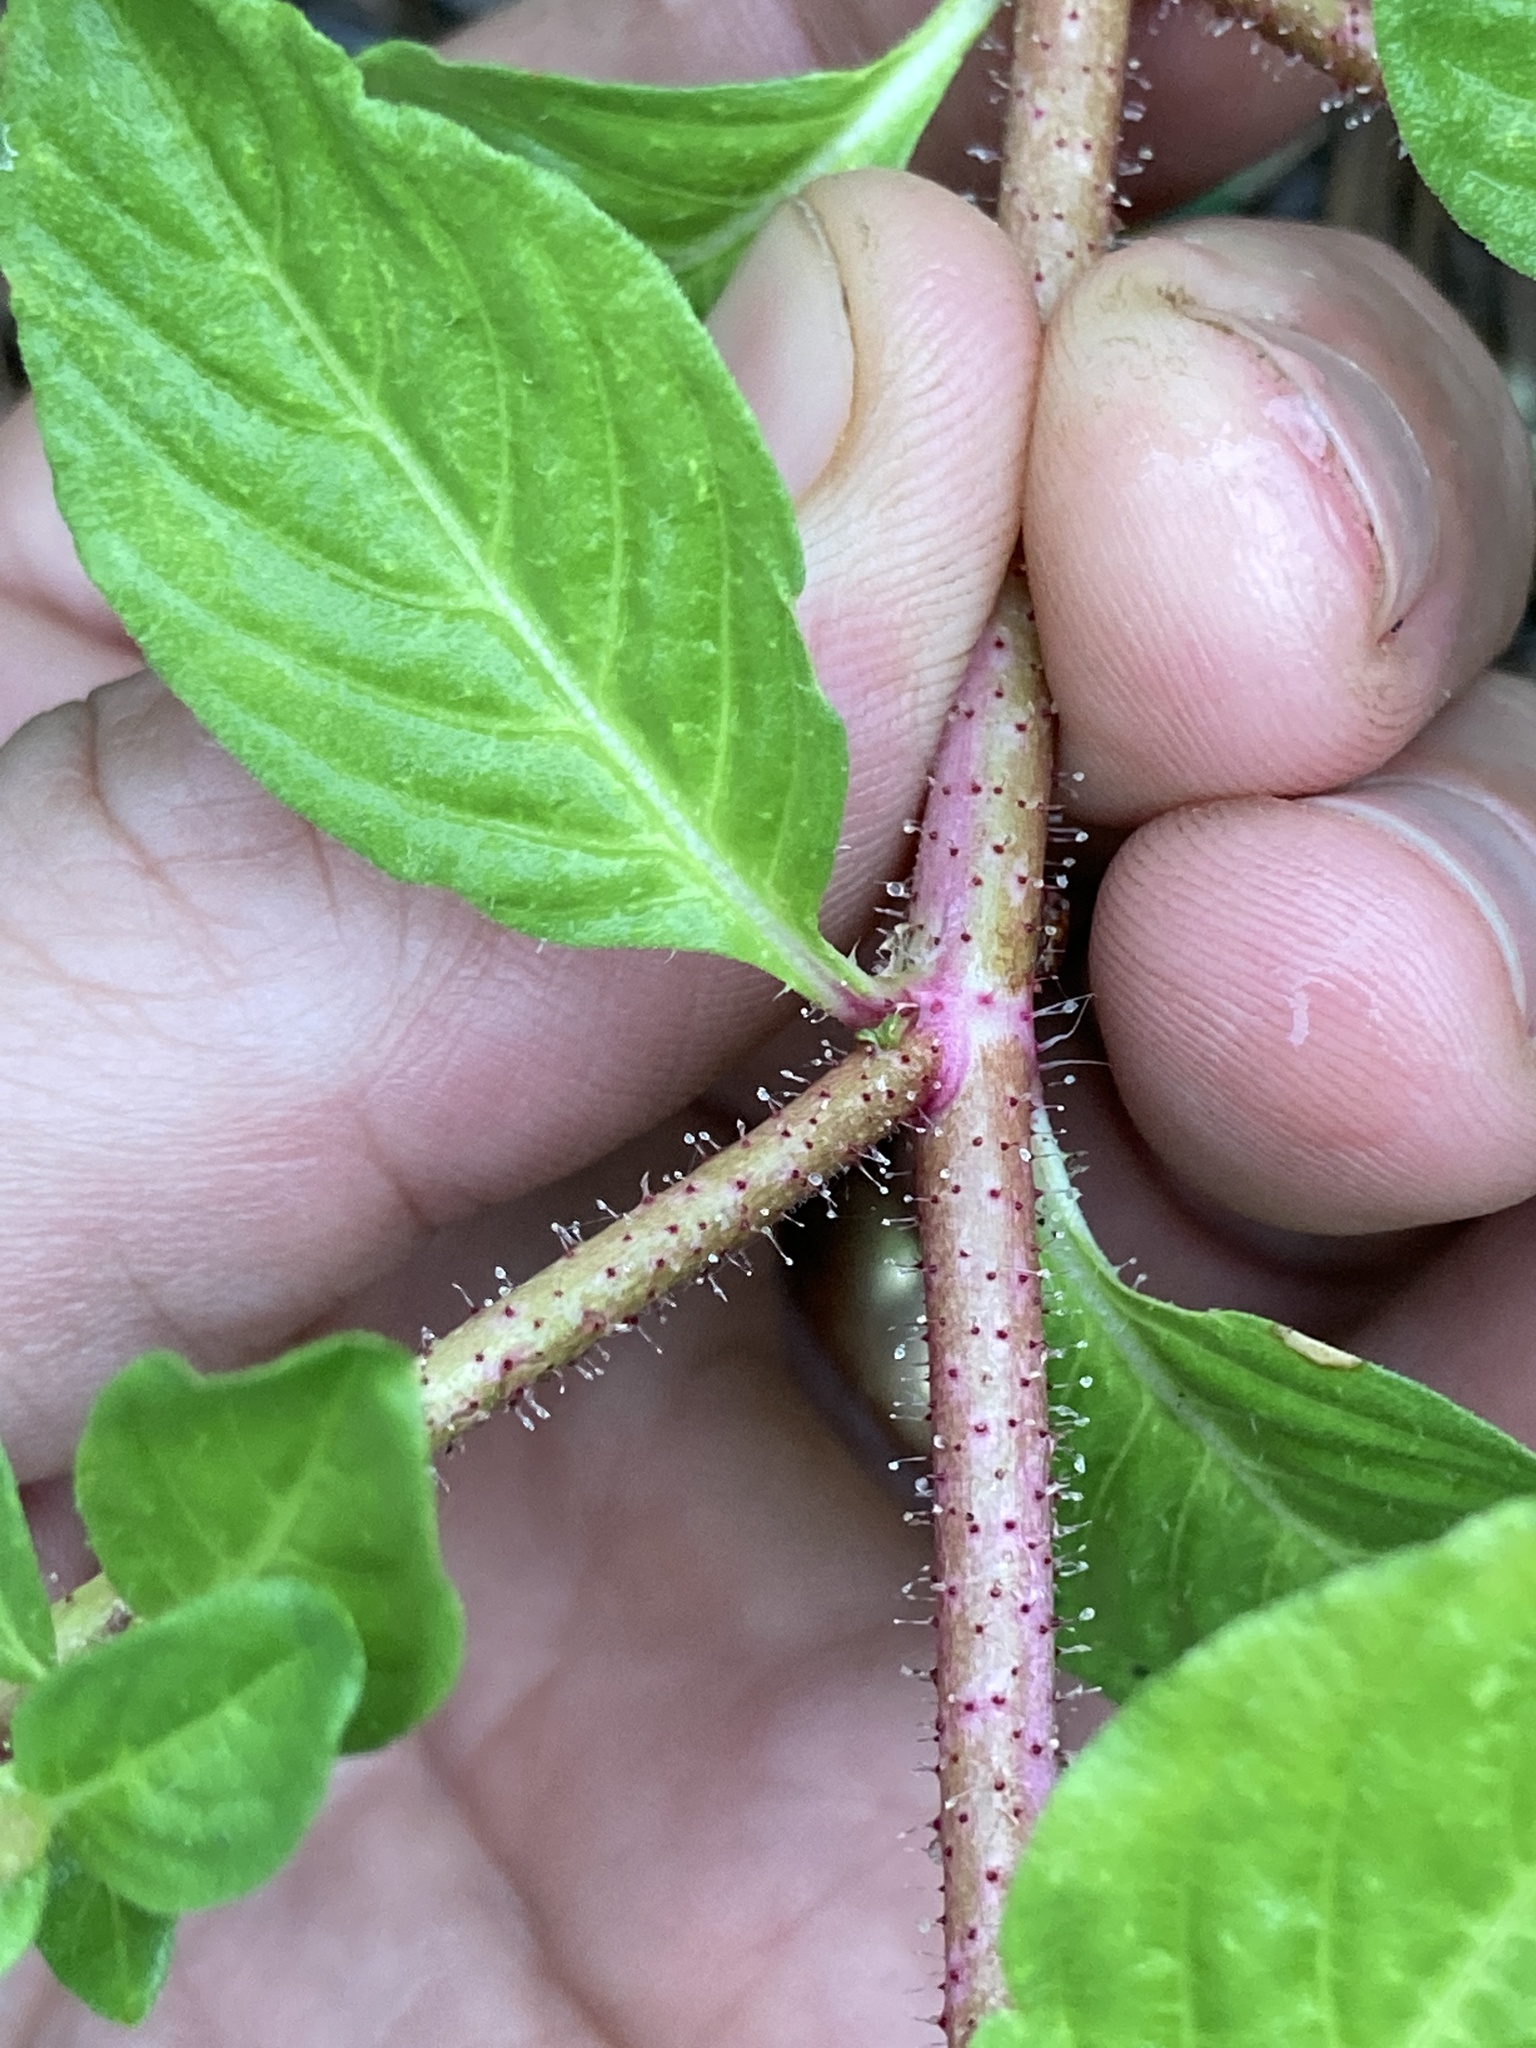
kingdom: Plantae
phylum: Tracheophyta
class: Magnoliopsida
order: Myrtales
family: Lythraceae
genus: Cuphea
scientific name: Cuphea carthagenensis
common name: Colombian waxweed
